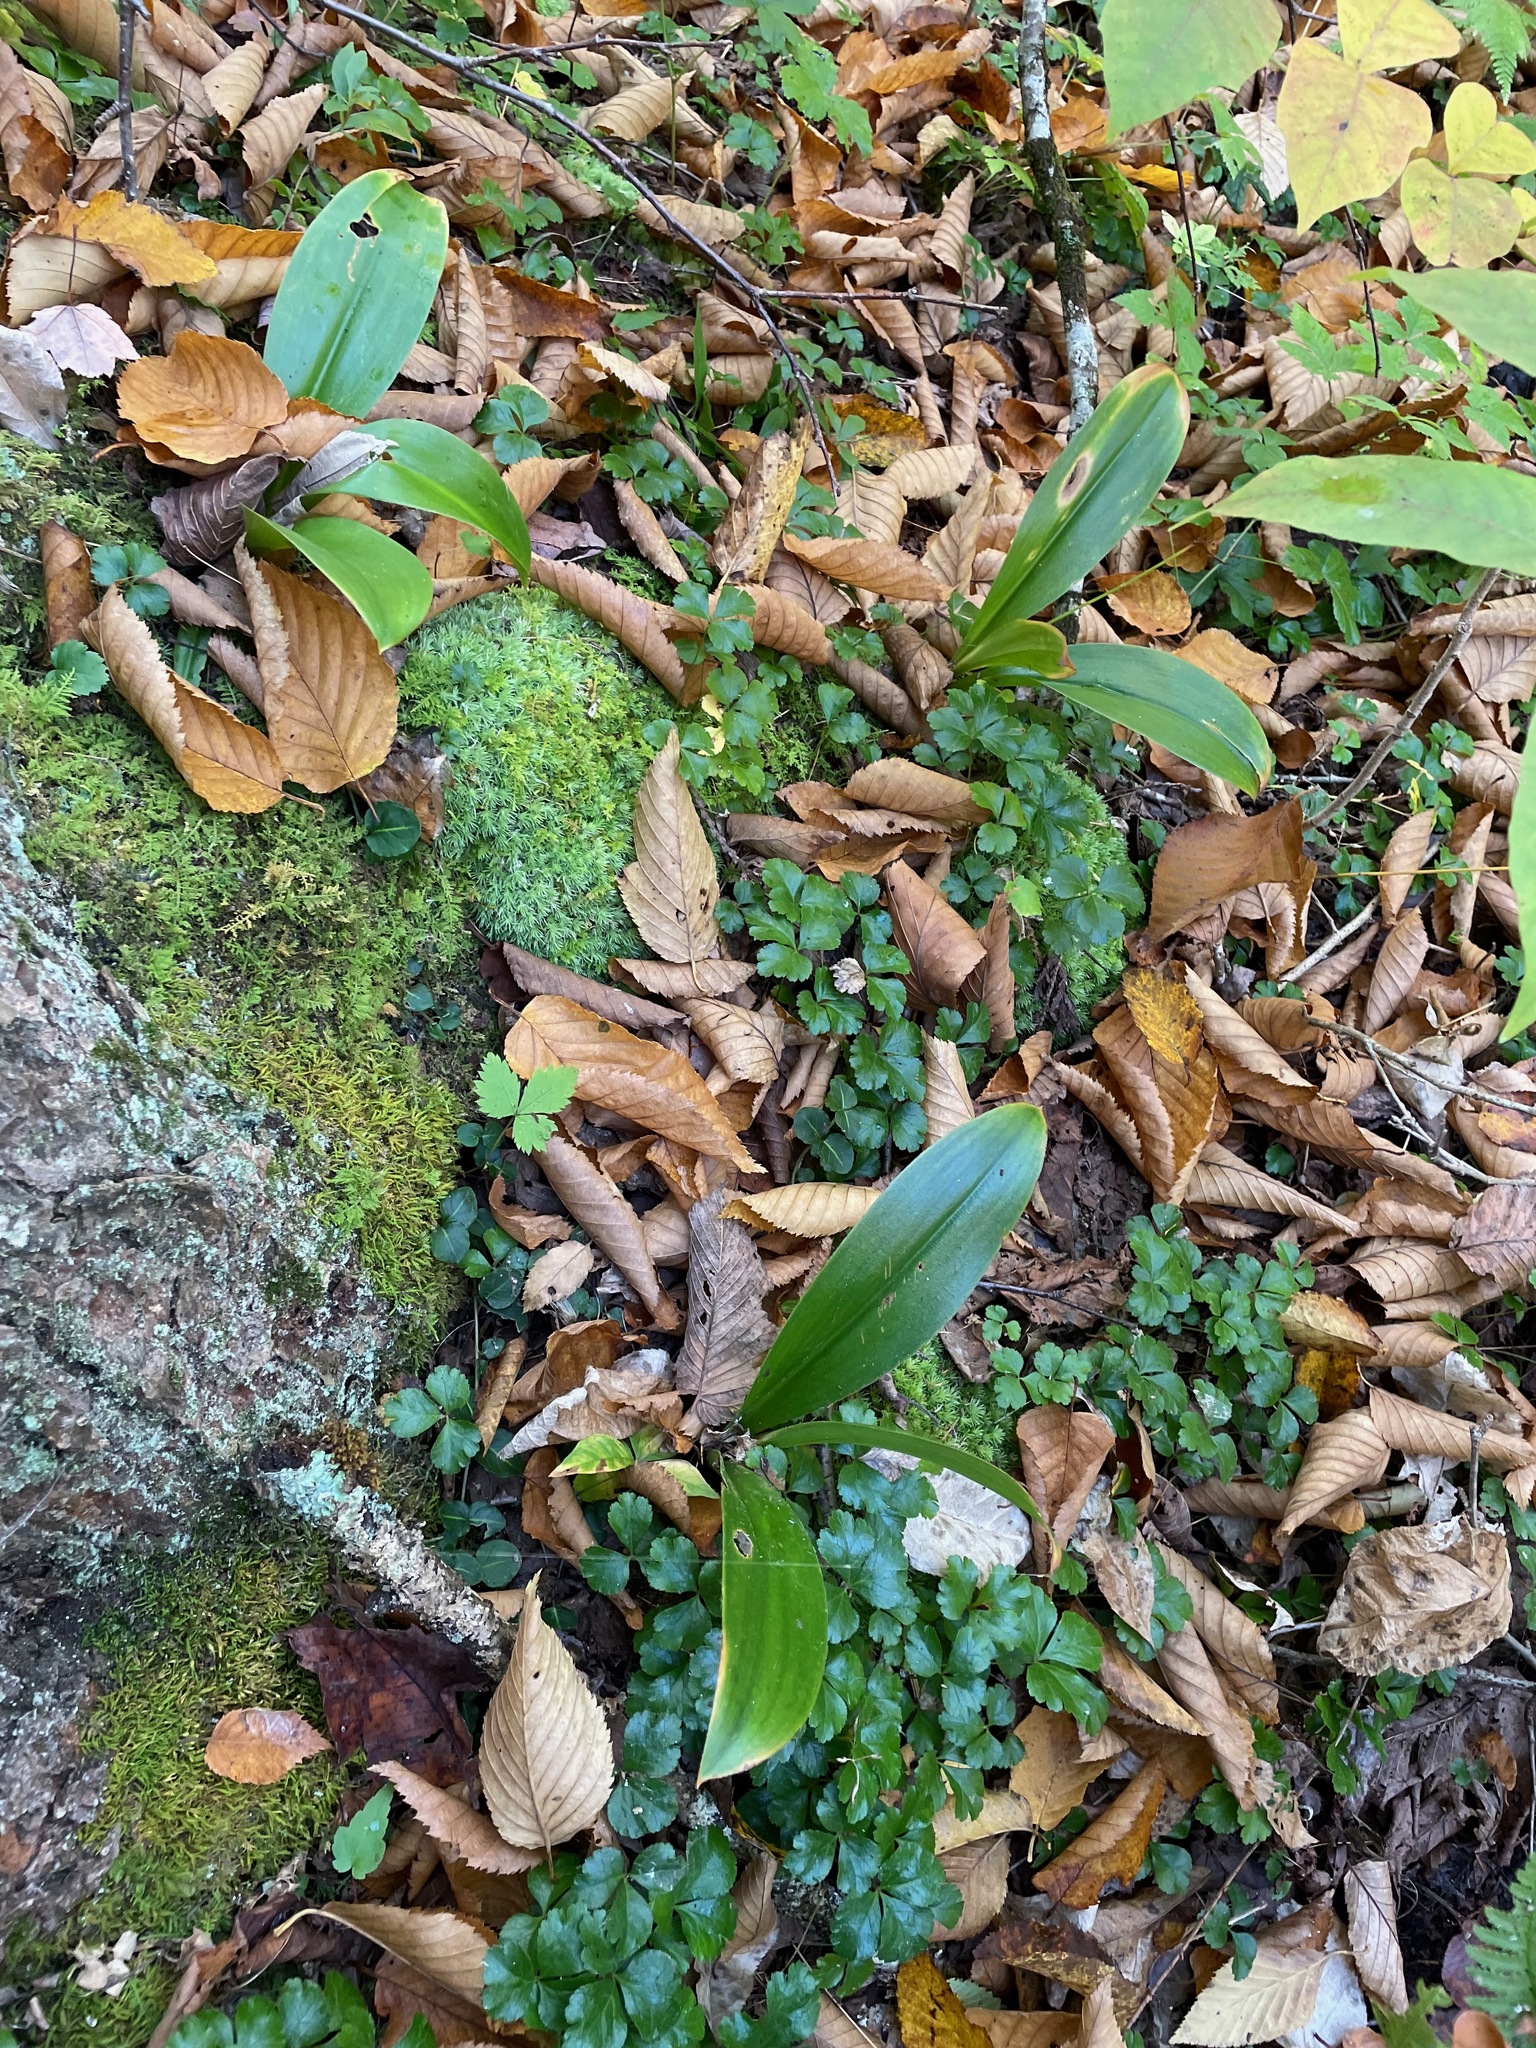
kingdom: Plantae
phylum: Tracheophyta
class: Liliopsida
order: Liliales
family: Liliaceae
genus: Clintonia
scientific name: Clintonia borealis
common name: Yellow clintonia
